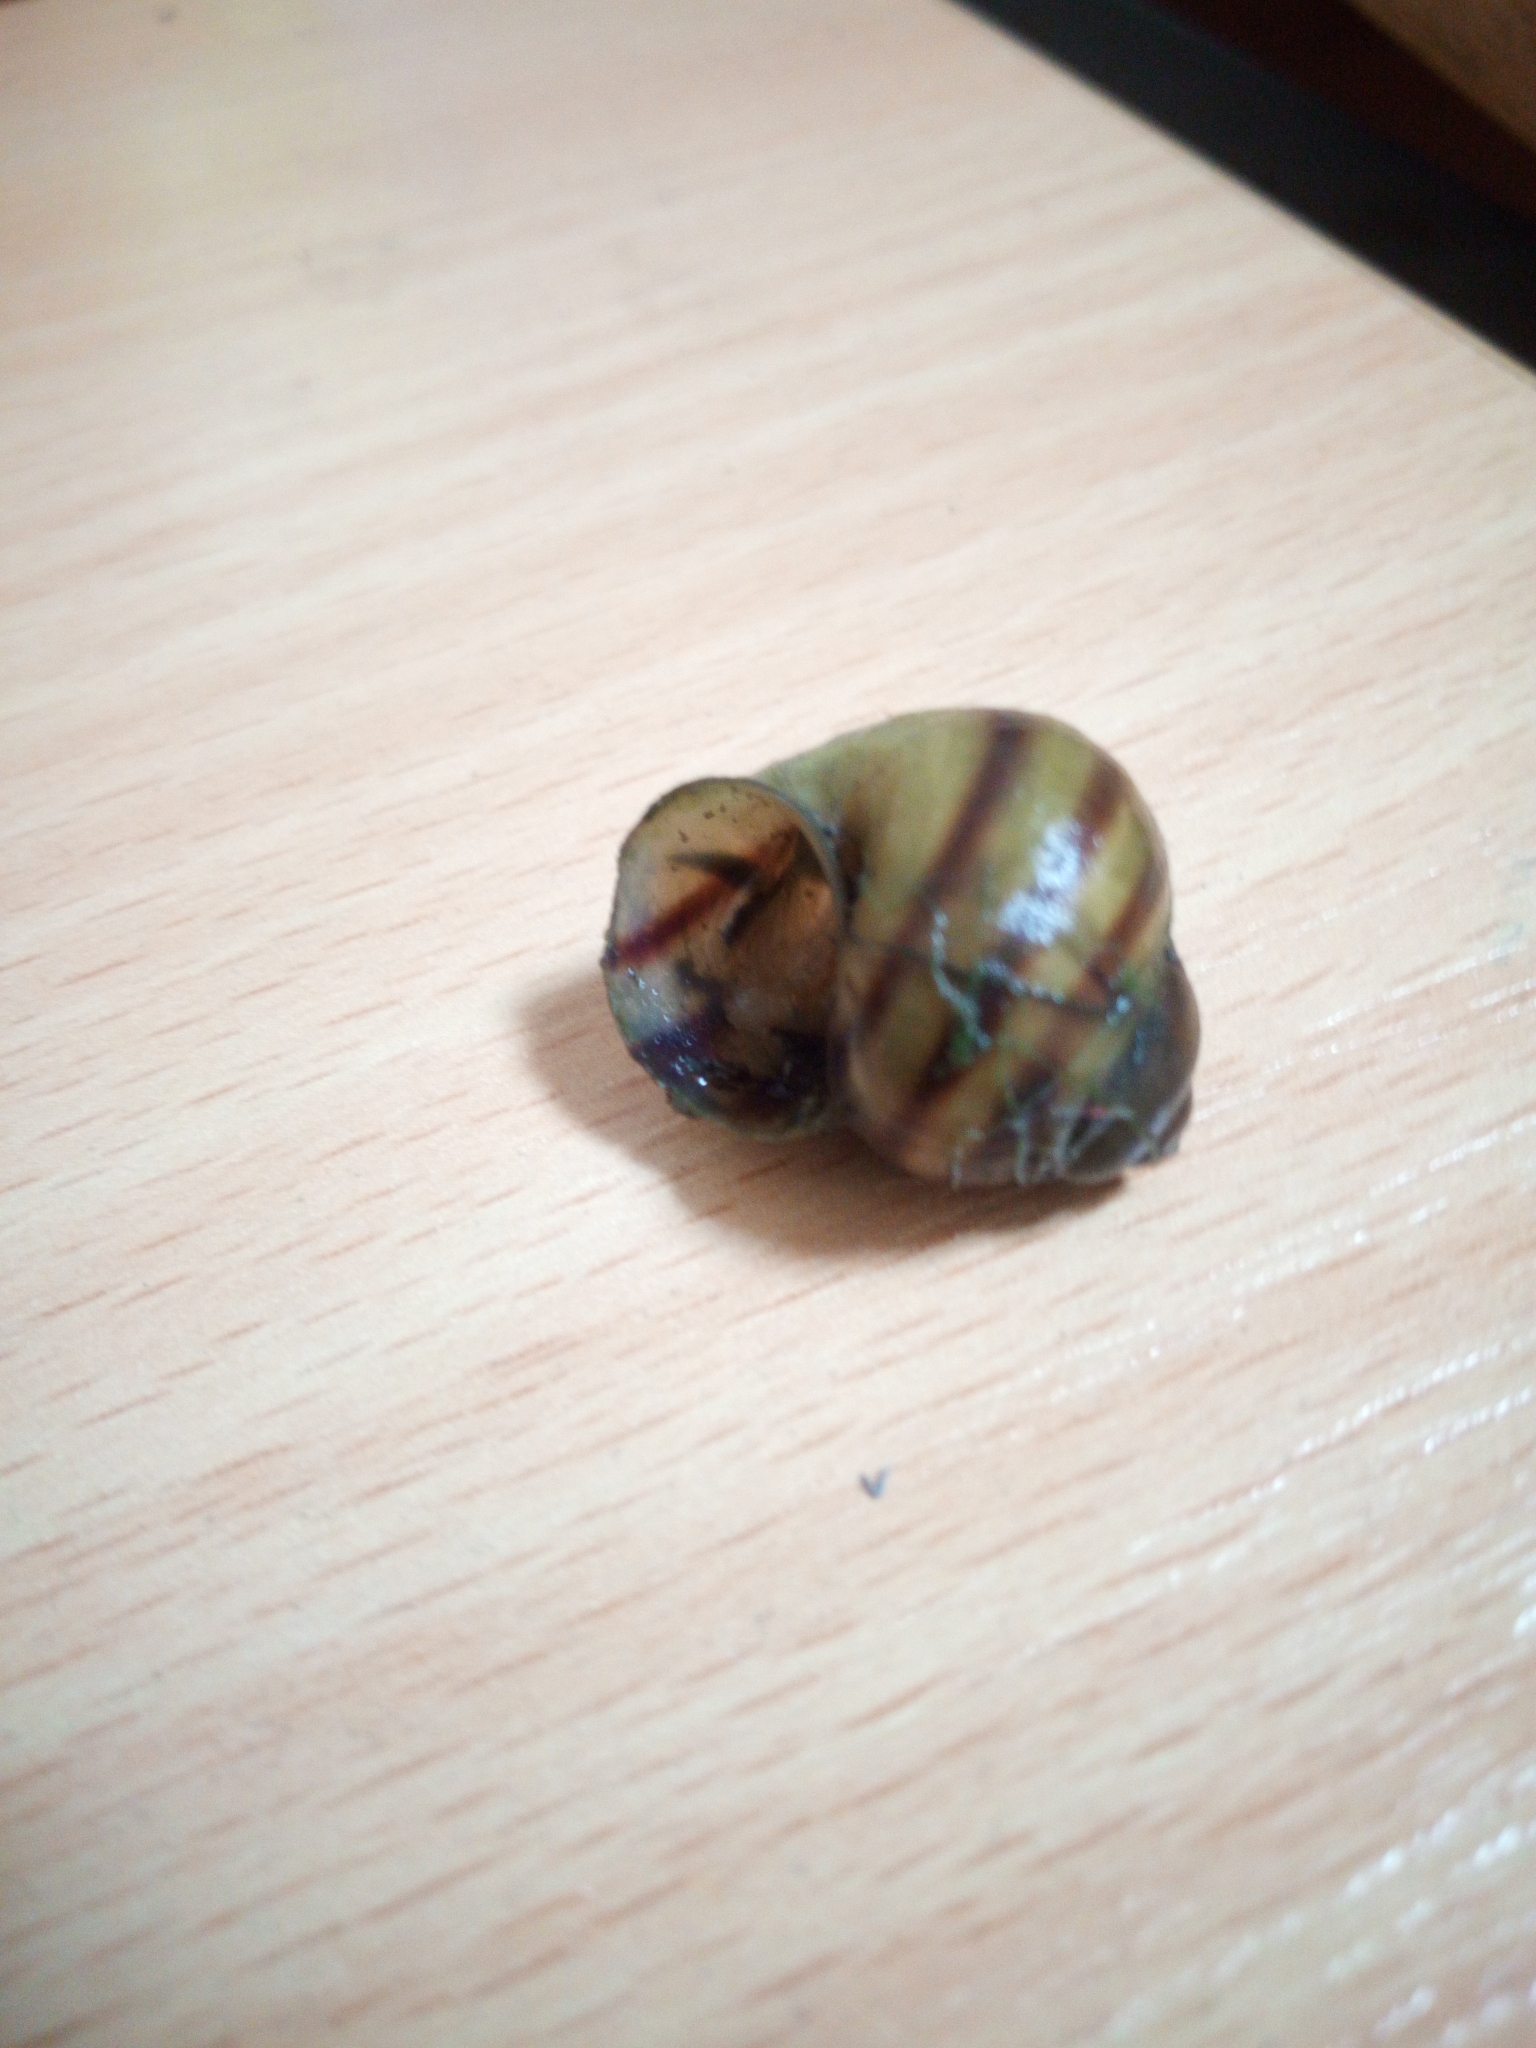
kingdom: Animalia
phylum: Mollusca
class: Gastropoda
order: Architaenioglossa
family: Viviparidae
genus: Viviparus
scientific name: Viviparus viviparus
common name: River snail
